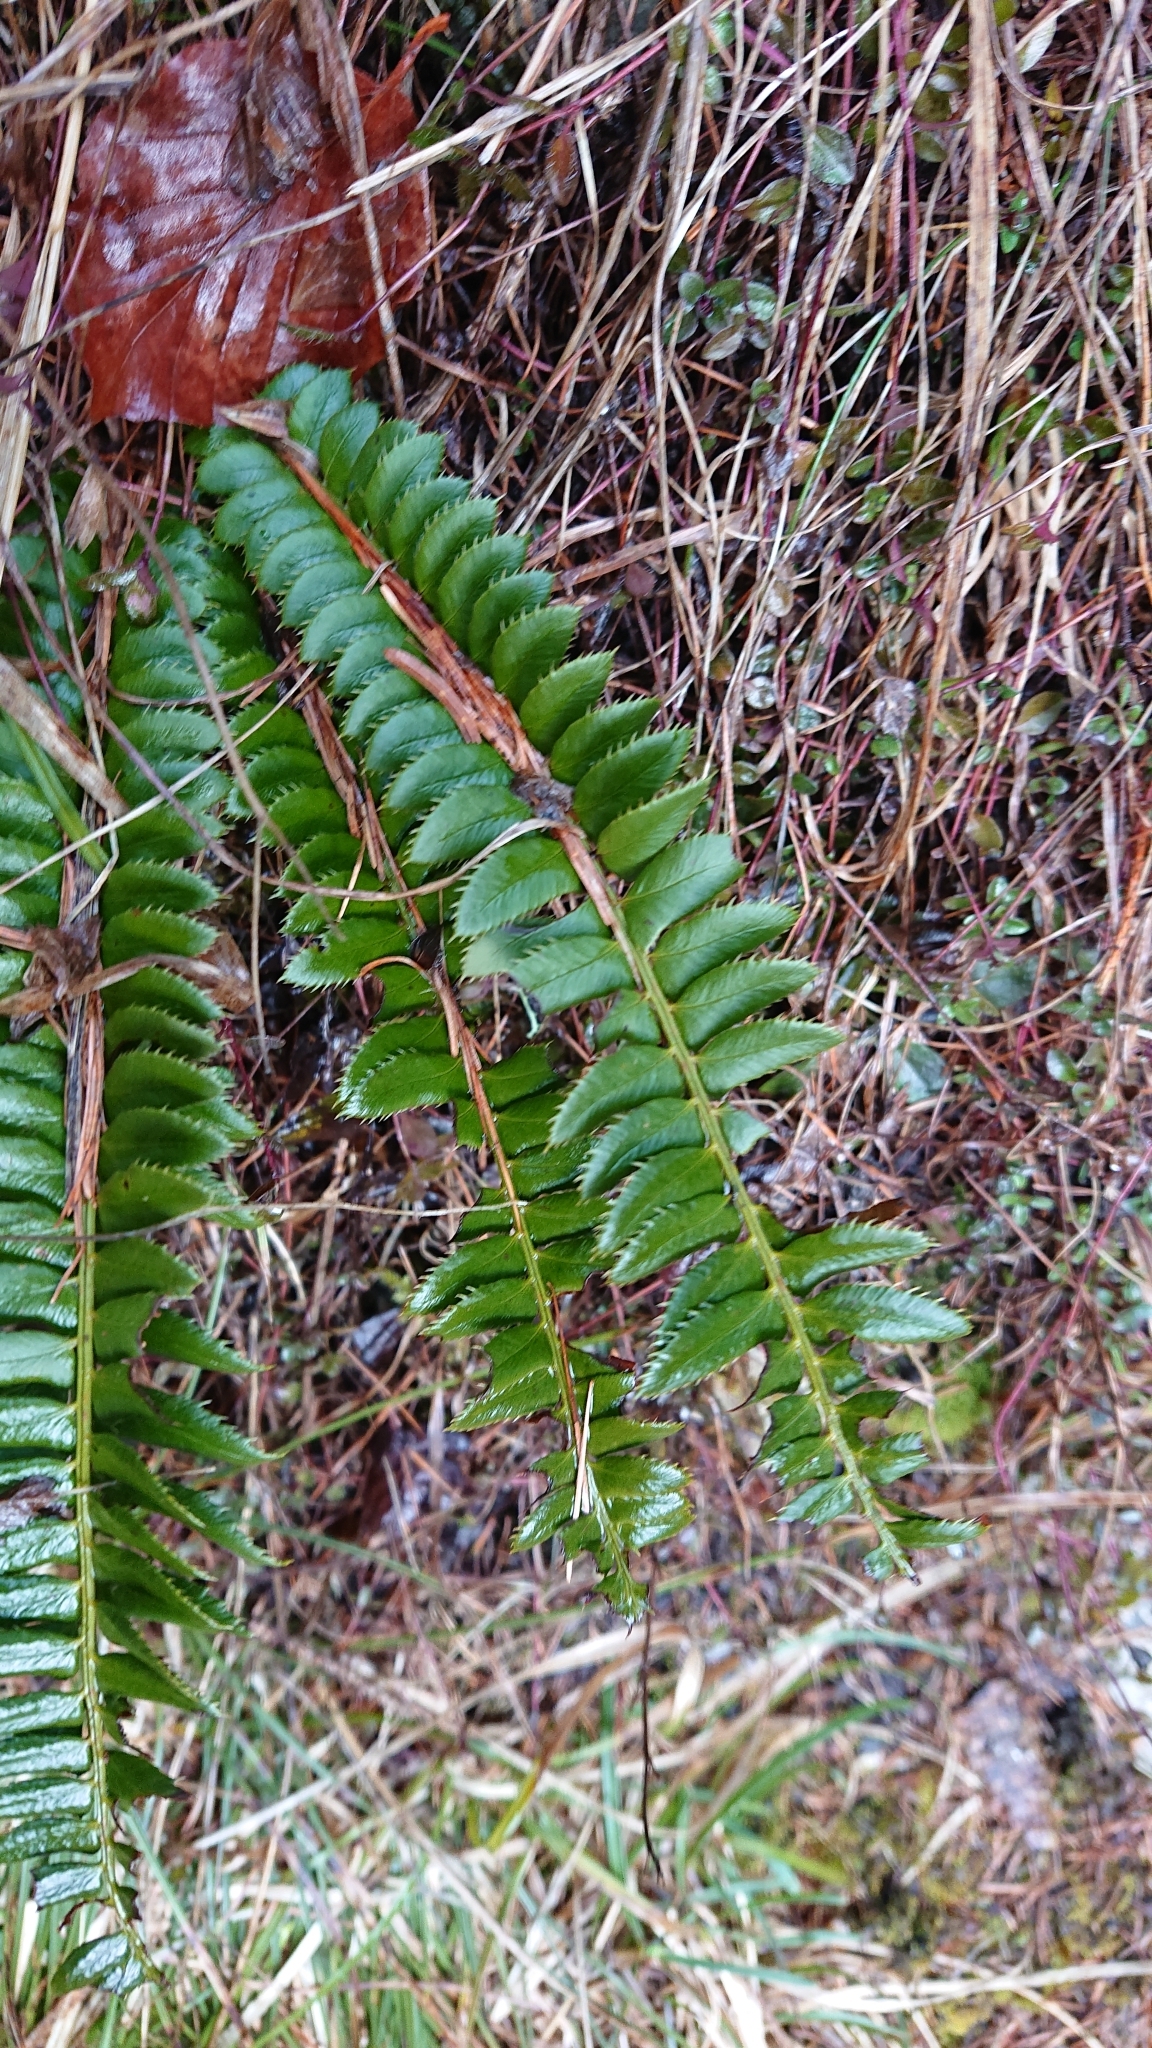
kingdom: Plantae
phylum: Tracheophyta
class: Polypodiopsida
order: Polypodiales
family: Dryopteridaceae
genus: Polystichum
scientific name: Polystichum lonchitis
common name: Holly fern
